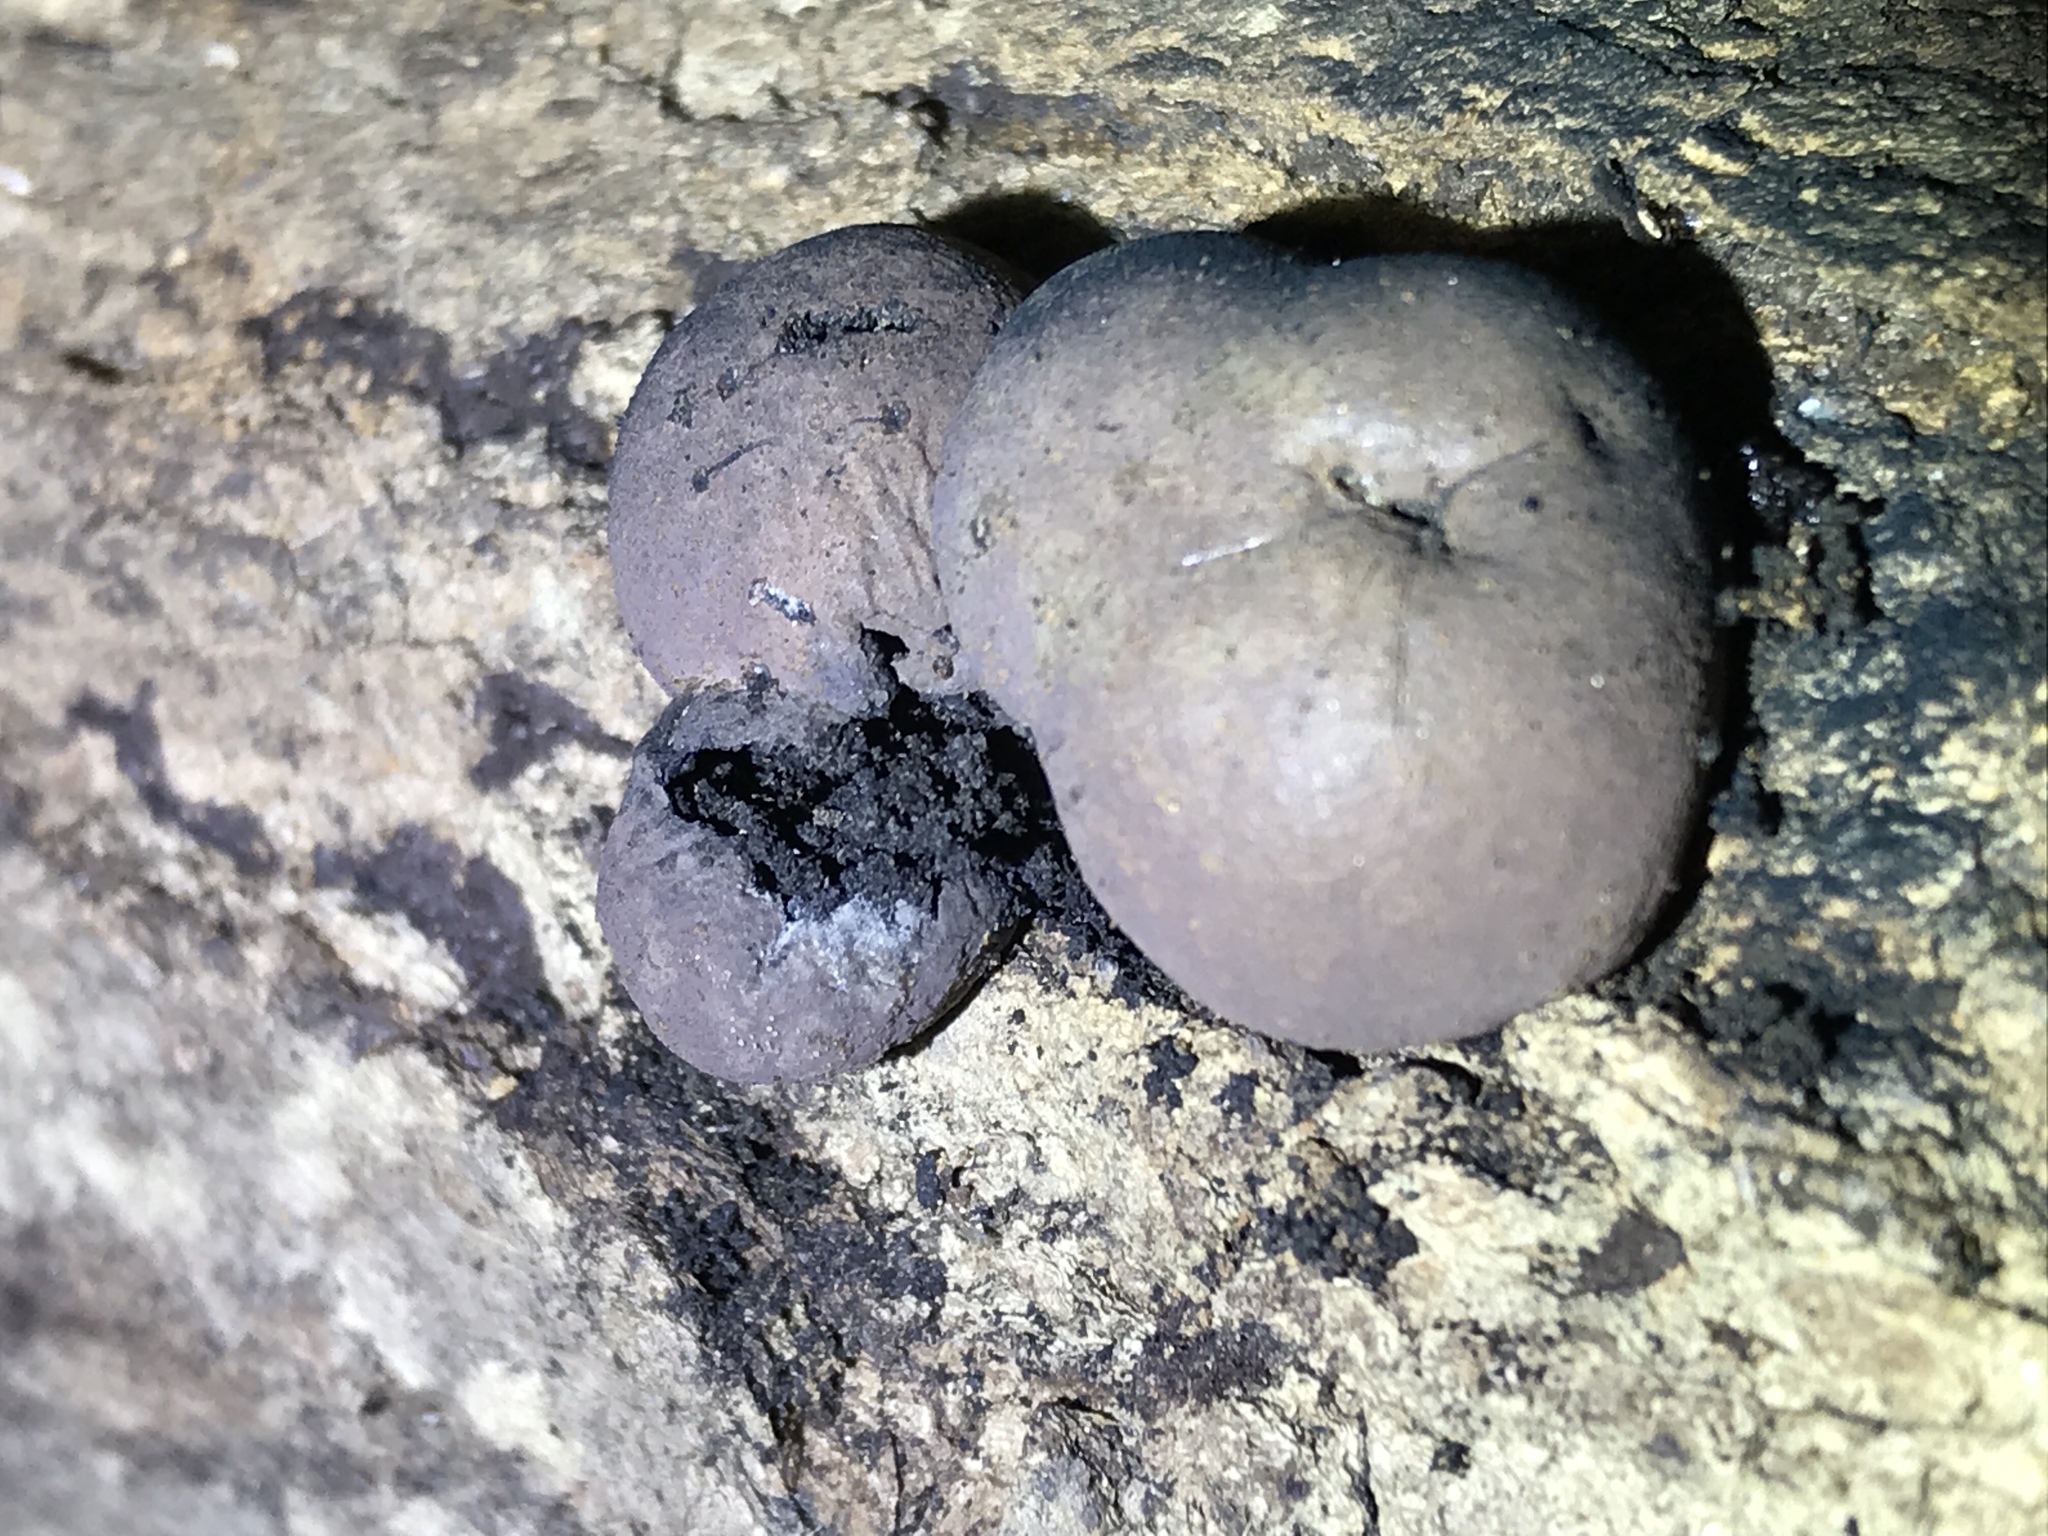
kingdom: Fungi
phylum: Ascomycota
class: Sordariomycetes
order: Xylariales
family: Hypoxylaceae
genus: Daldinia
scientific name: Daldinia childiae
